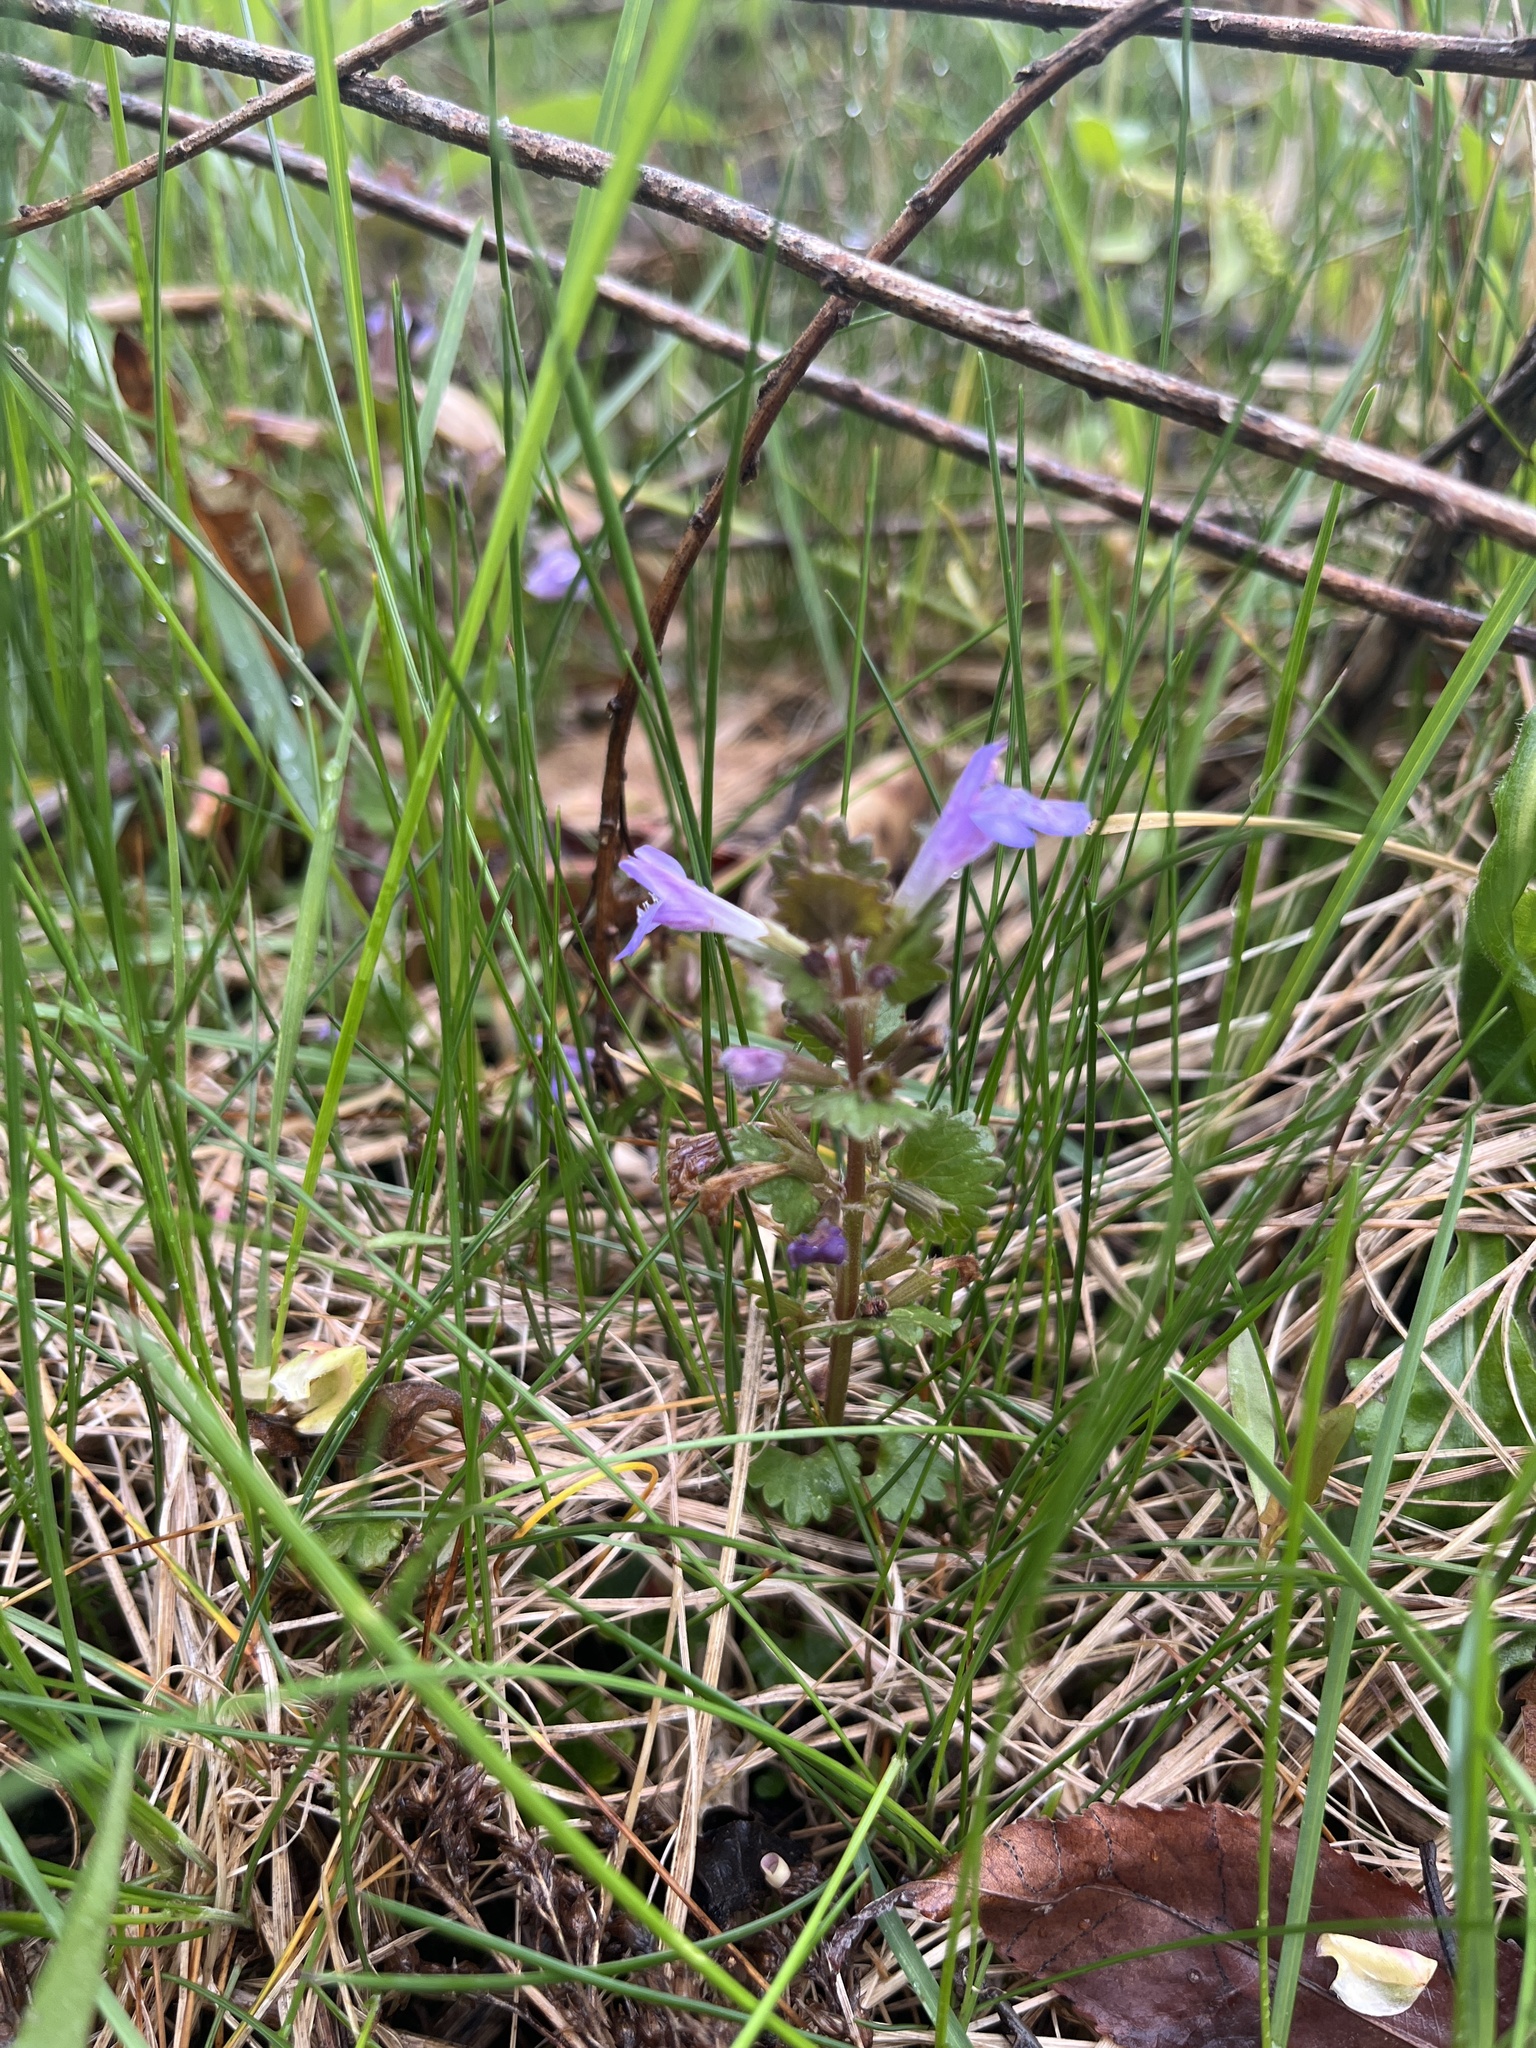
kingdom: Plantae
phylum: Tracheophyta
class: Magnoliopsida
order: Lamiales
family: Lamiaceae
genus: Glechoma
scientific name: Glechoma hederacea
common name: Ground ivy
